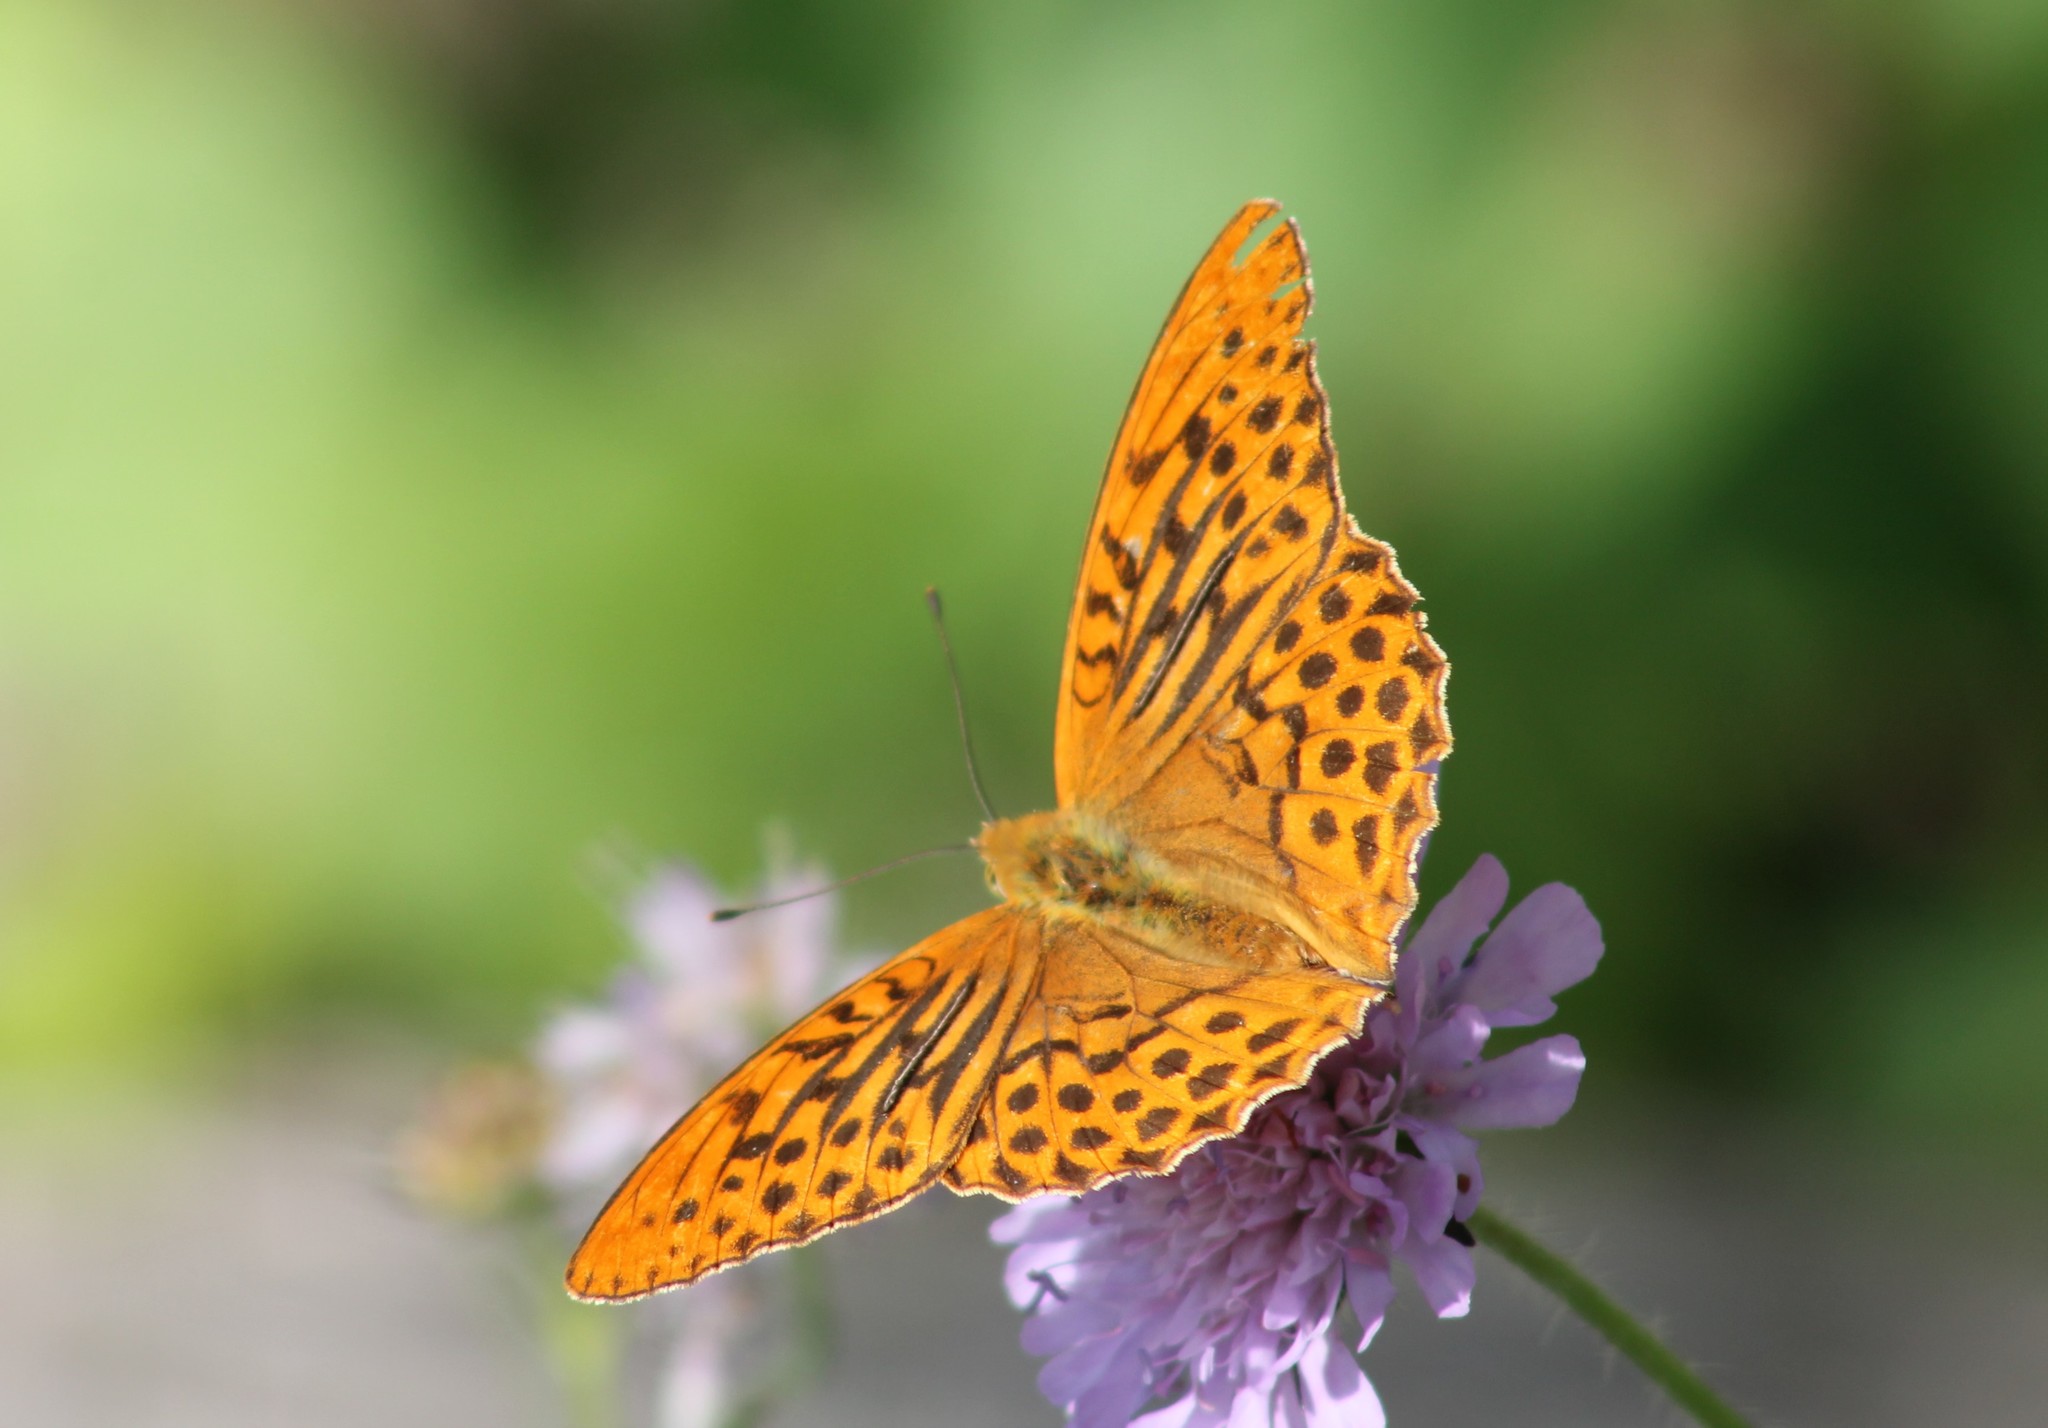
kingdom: Animalia
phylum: Arthropoda
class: Insecta
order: Lepidoptera
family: Nymphalidae
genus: Argynnis
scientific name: Argynnis paphia
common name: Silver-washed fritillary
